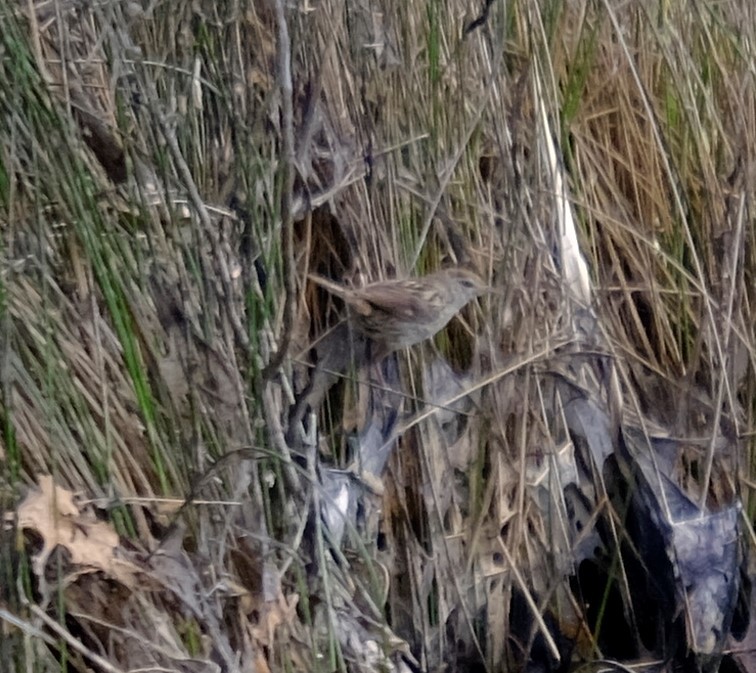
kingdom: Animalia
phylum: Chordata
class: Aves
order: Passeriformes
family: Locustellidae
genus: Megalurus
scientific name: Megalurus gramineus
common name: Little grassbird
